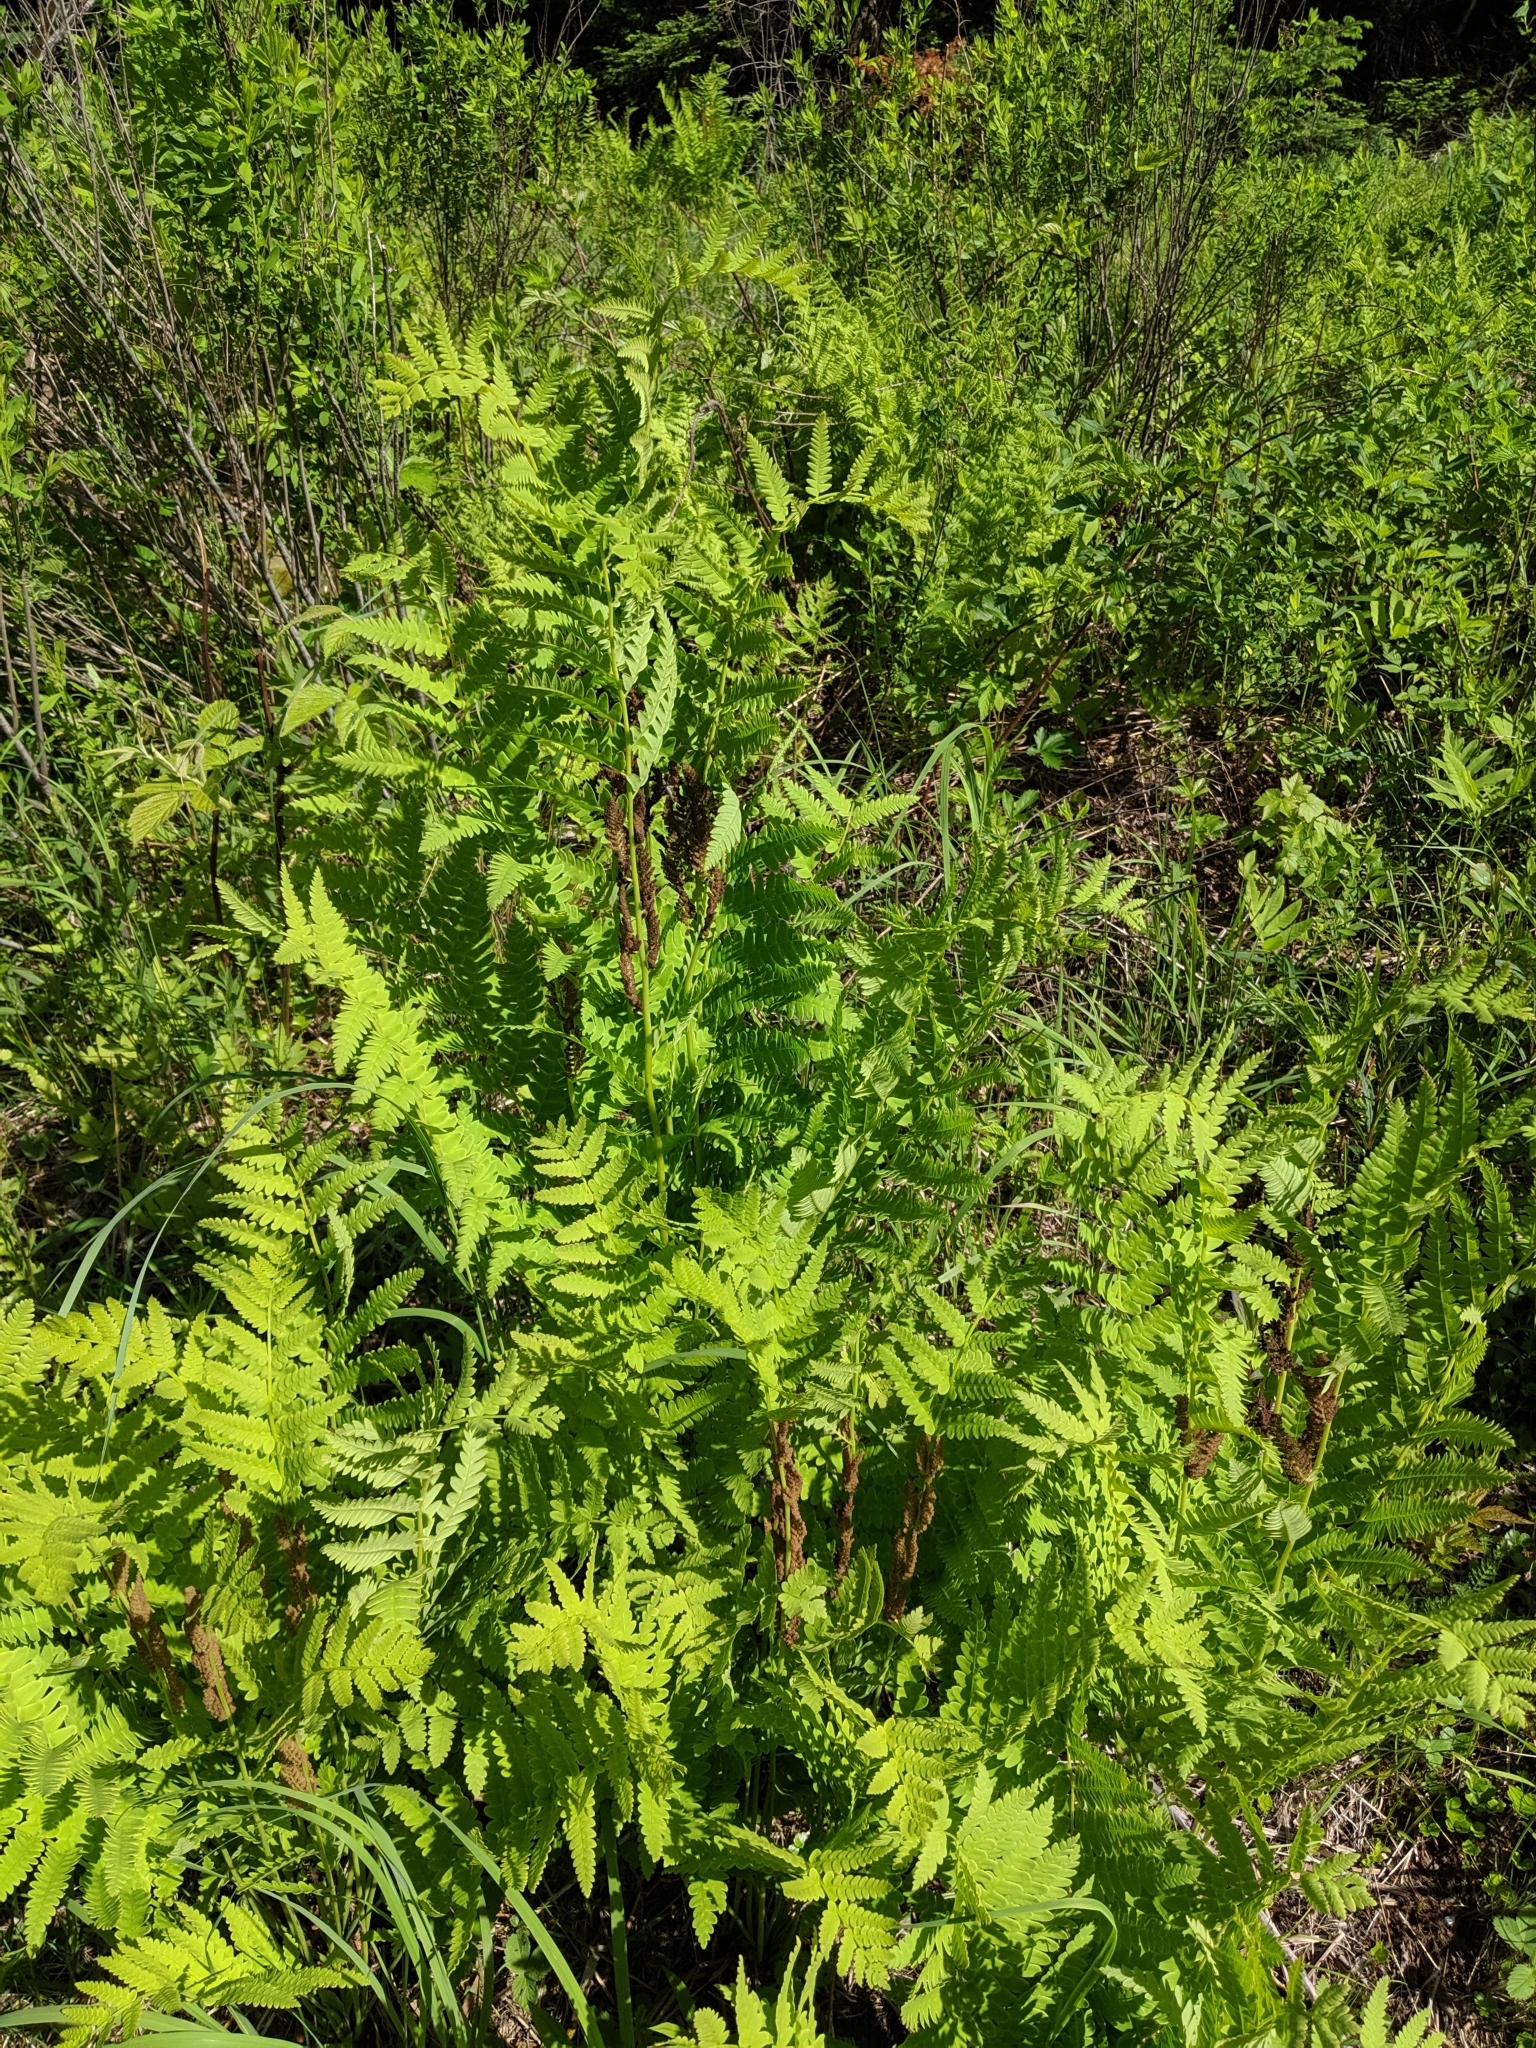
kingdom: Plantae
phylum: Tracheophyta
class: Polypodiopsida
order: Osmundales
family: Osmundaceae
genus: Osmundastrum
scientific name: Osmundastrum cinnamomeum
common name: Cinnamon fern
